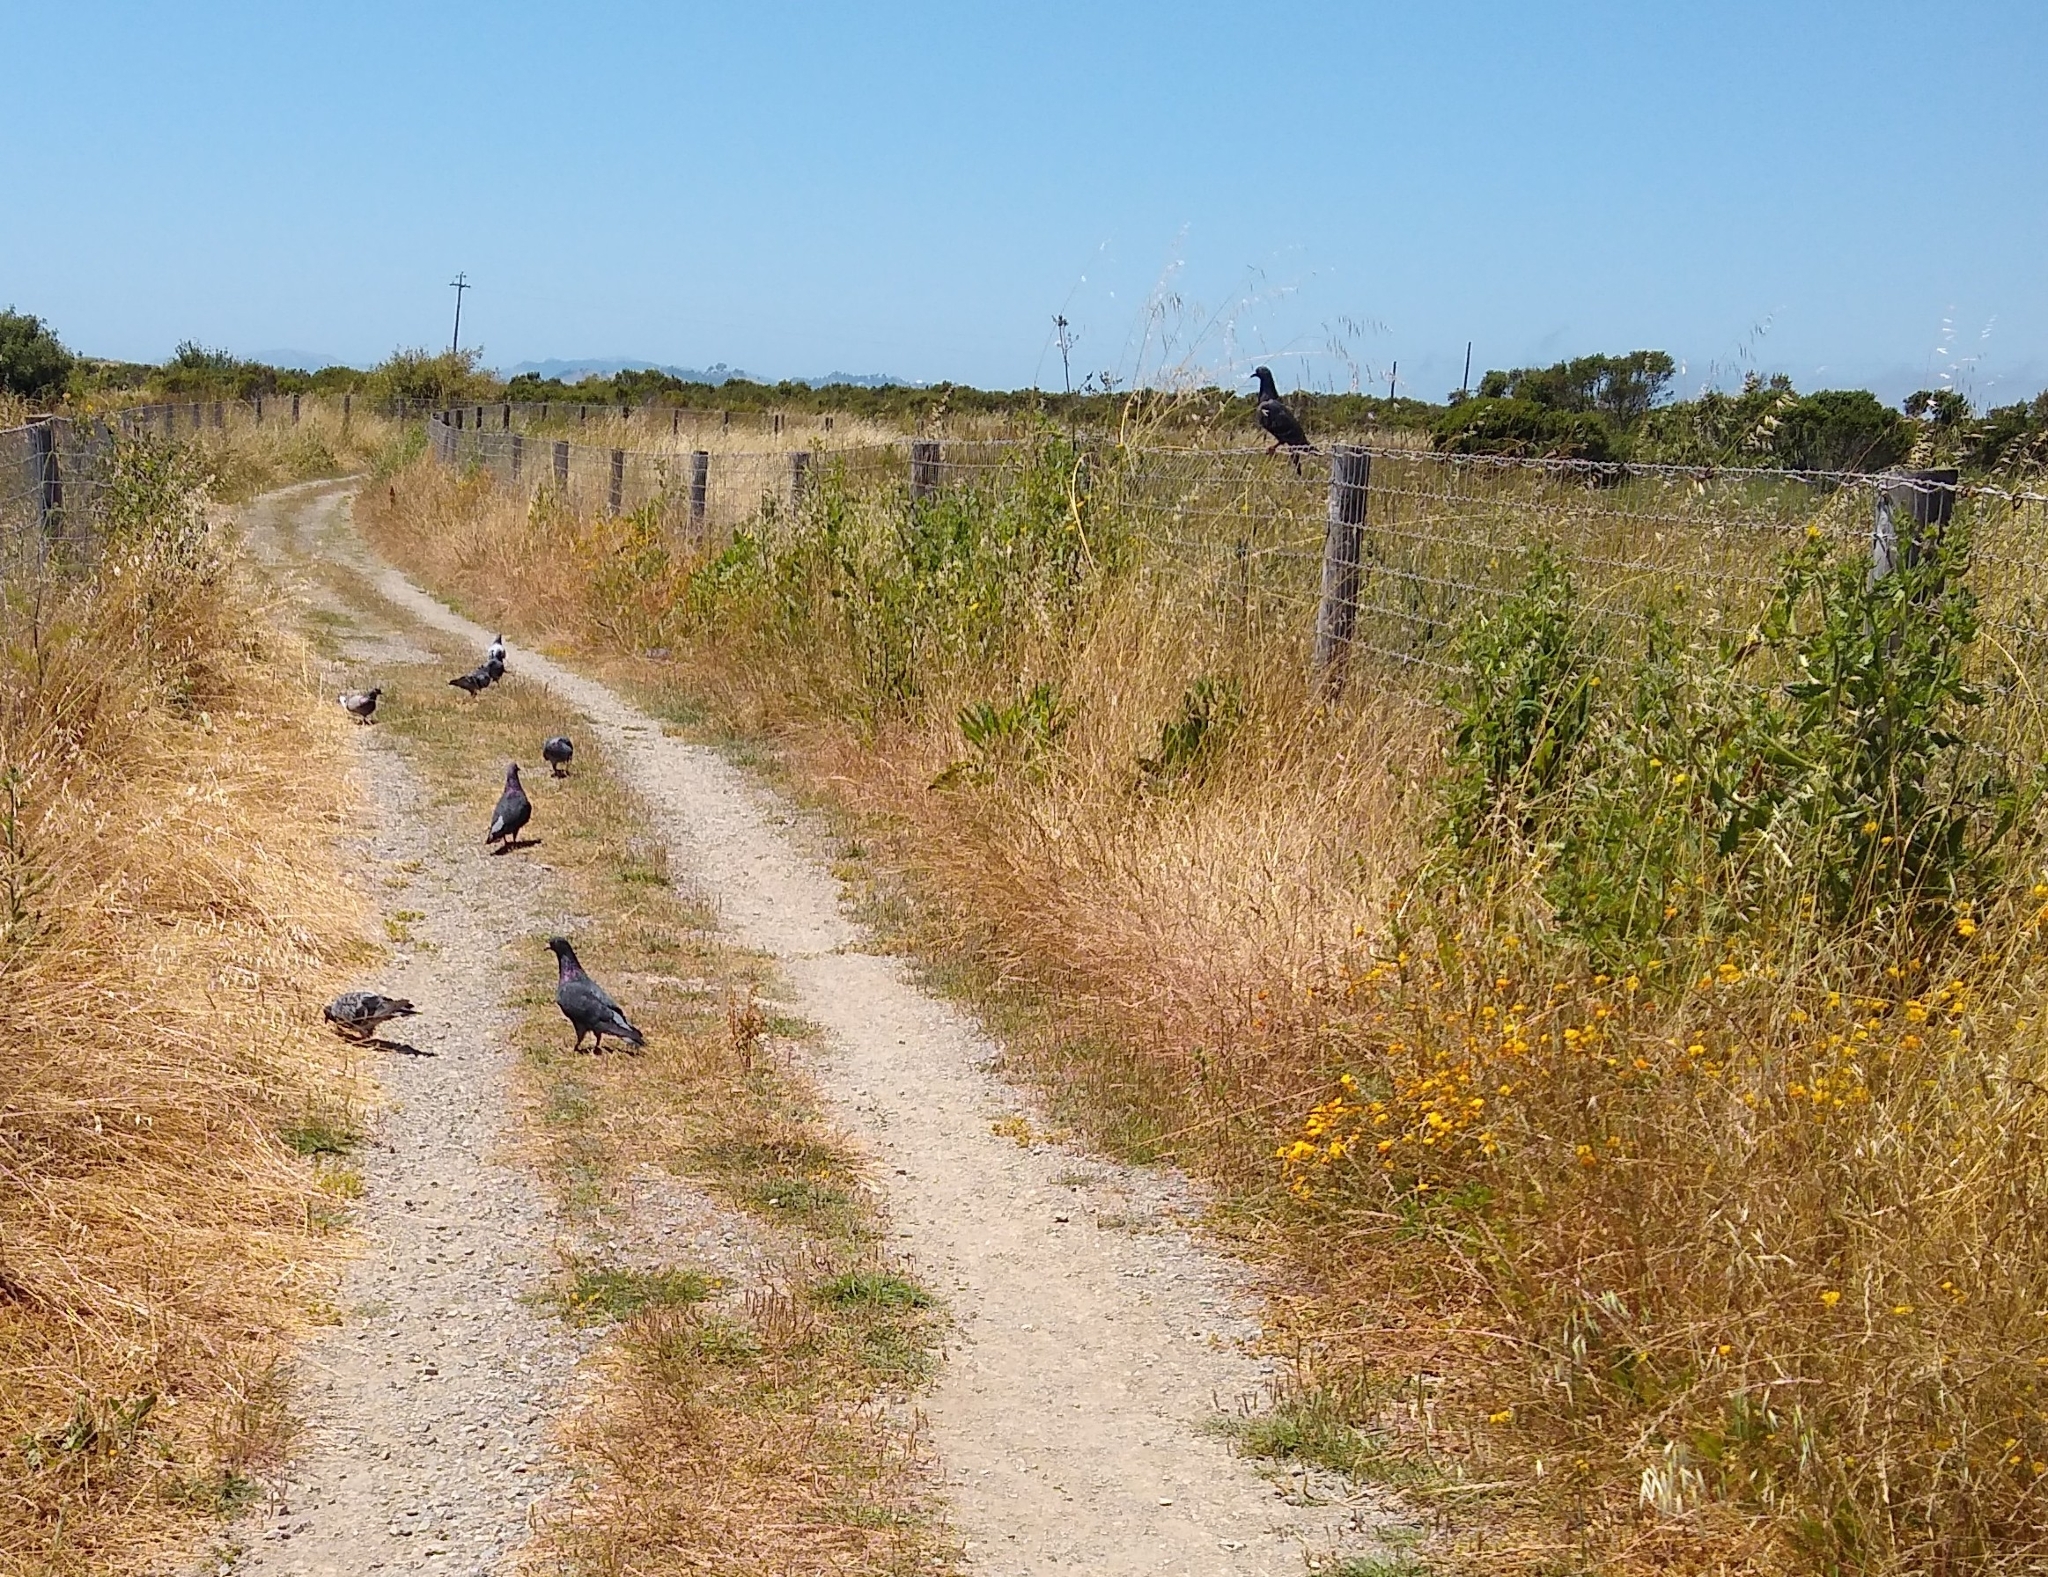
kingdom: Animalia
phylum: Chordata
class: Aves
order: Columbiformes
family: Columbidae
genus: Columba
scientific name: Columba livia
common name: Rock pigeon
